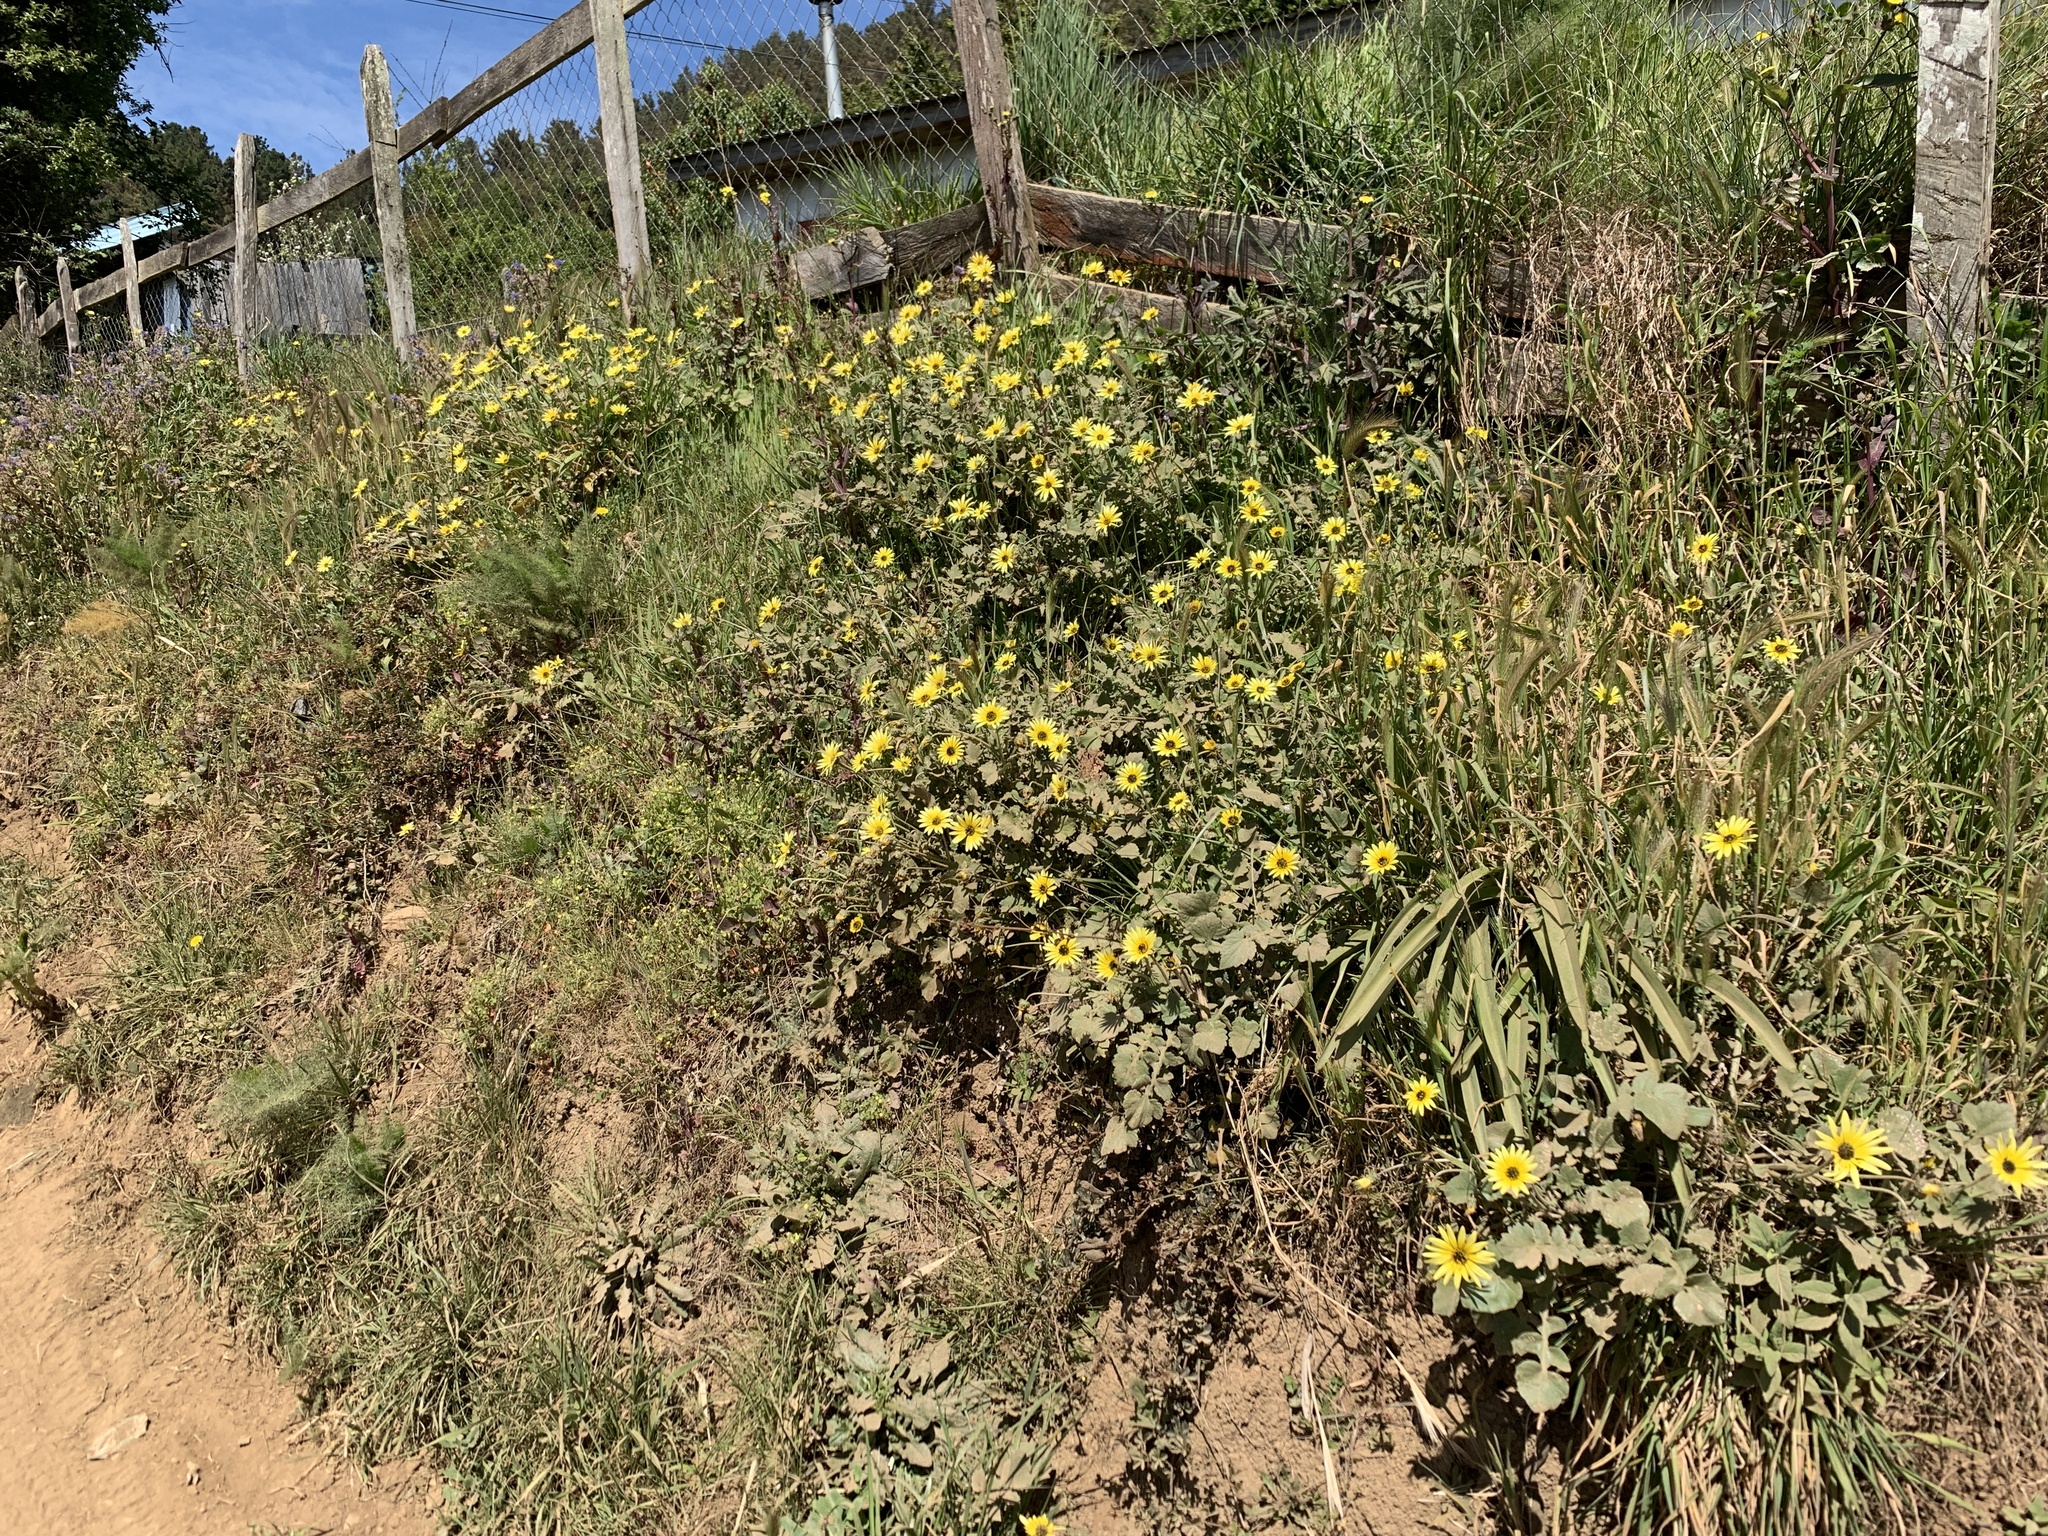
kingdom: Plantae
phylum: Tracheophyta
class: Magnoliopsida
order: Asterales
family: Asteraceae
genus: Arctotheca
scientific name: Arctotheca calendula
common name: Capeweed
